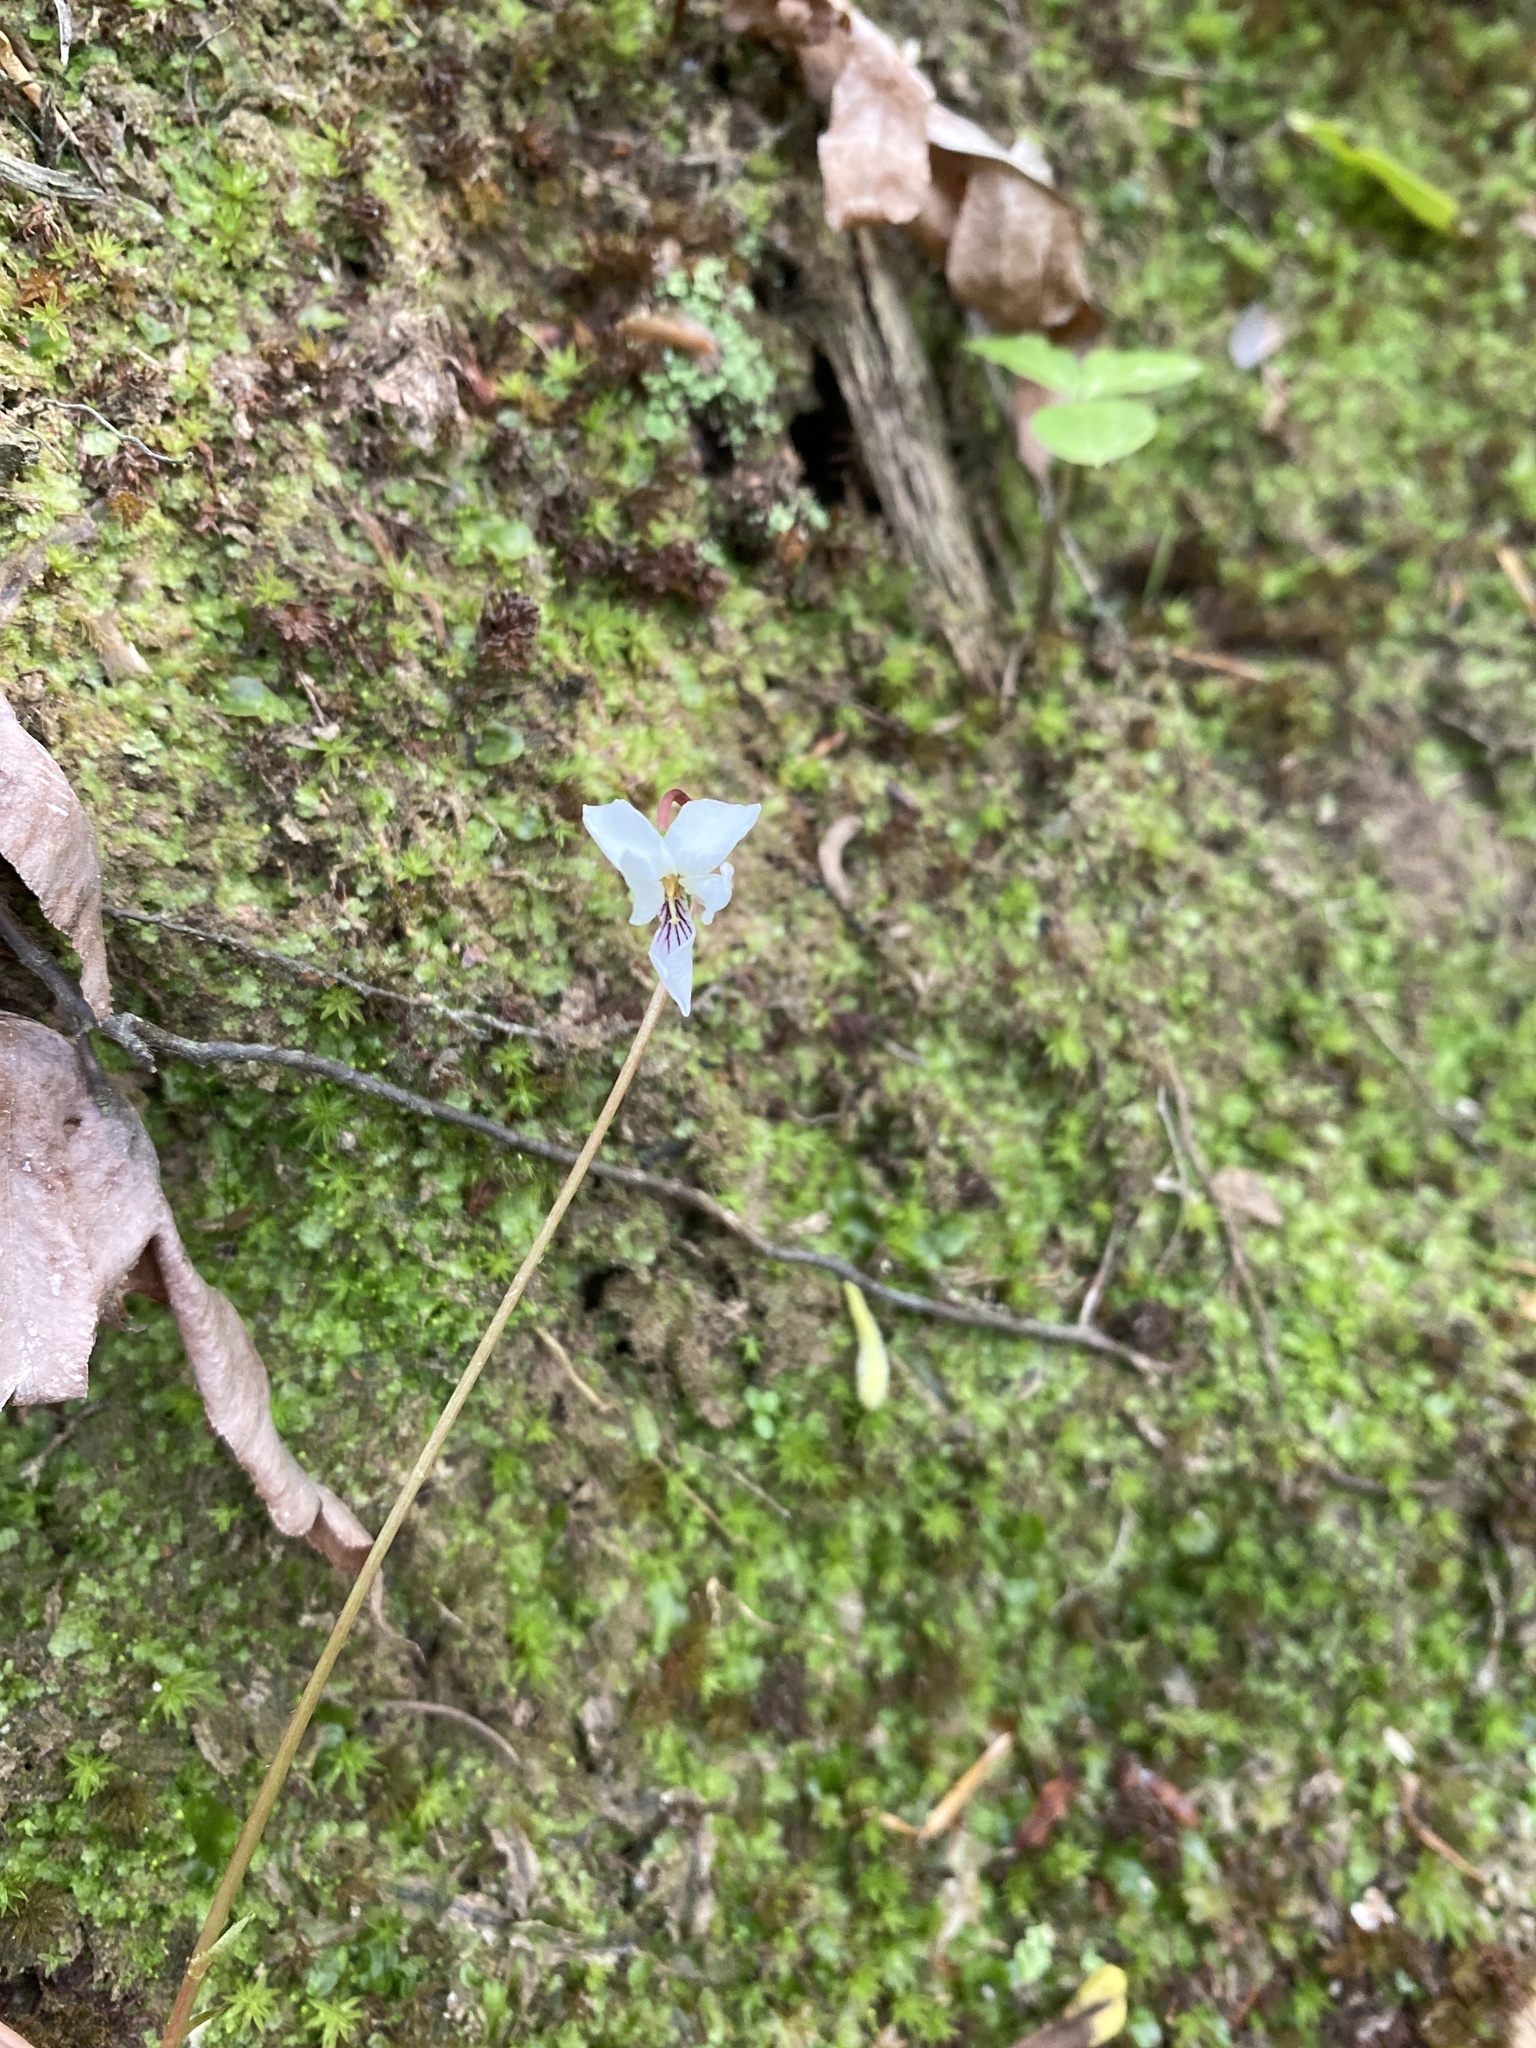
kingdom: Plantae
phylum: Tracheophyta
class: Magnoliopsida
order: Malpighiales
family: Violaceae
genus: Viola
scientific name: Viola primulifolia
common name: Primrose-leaf violet
